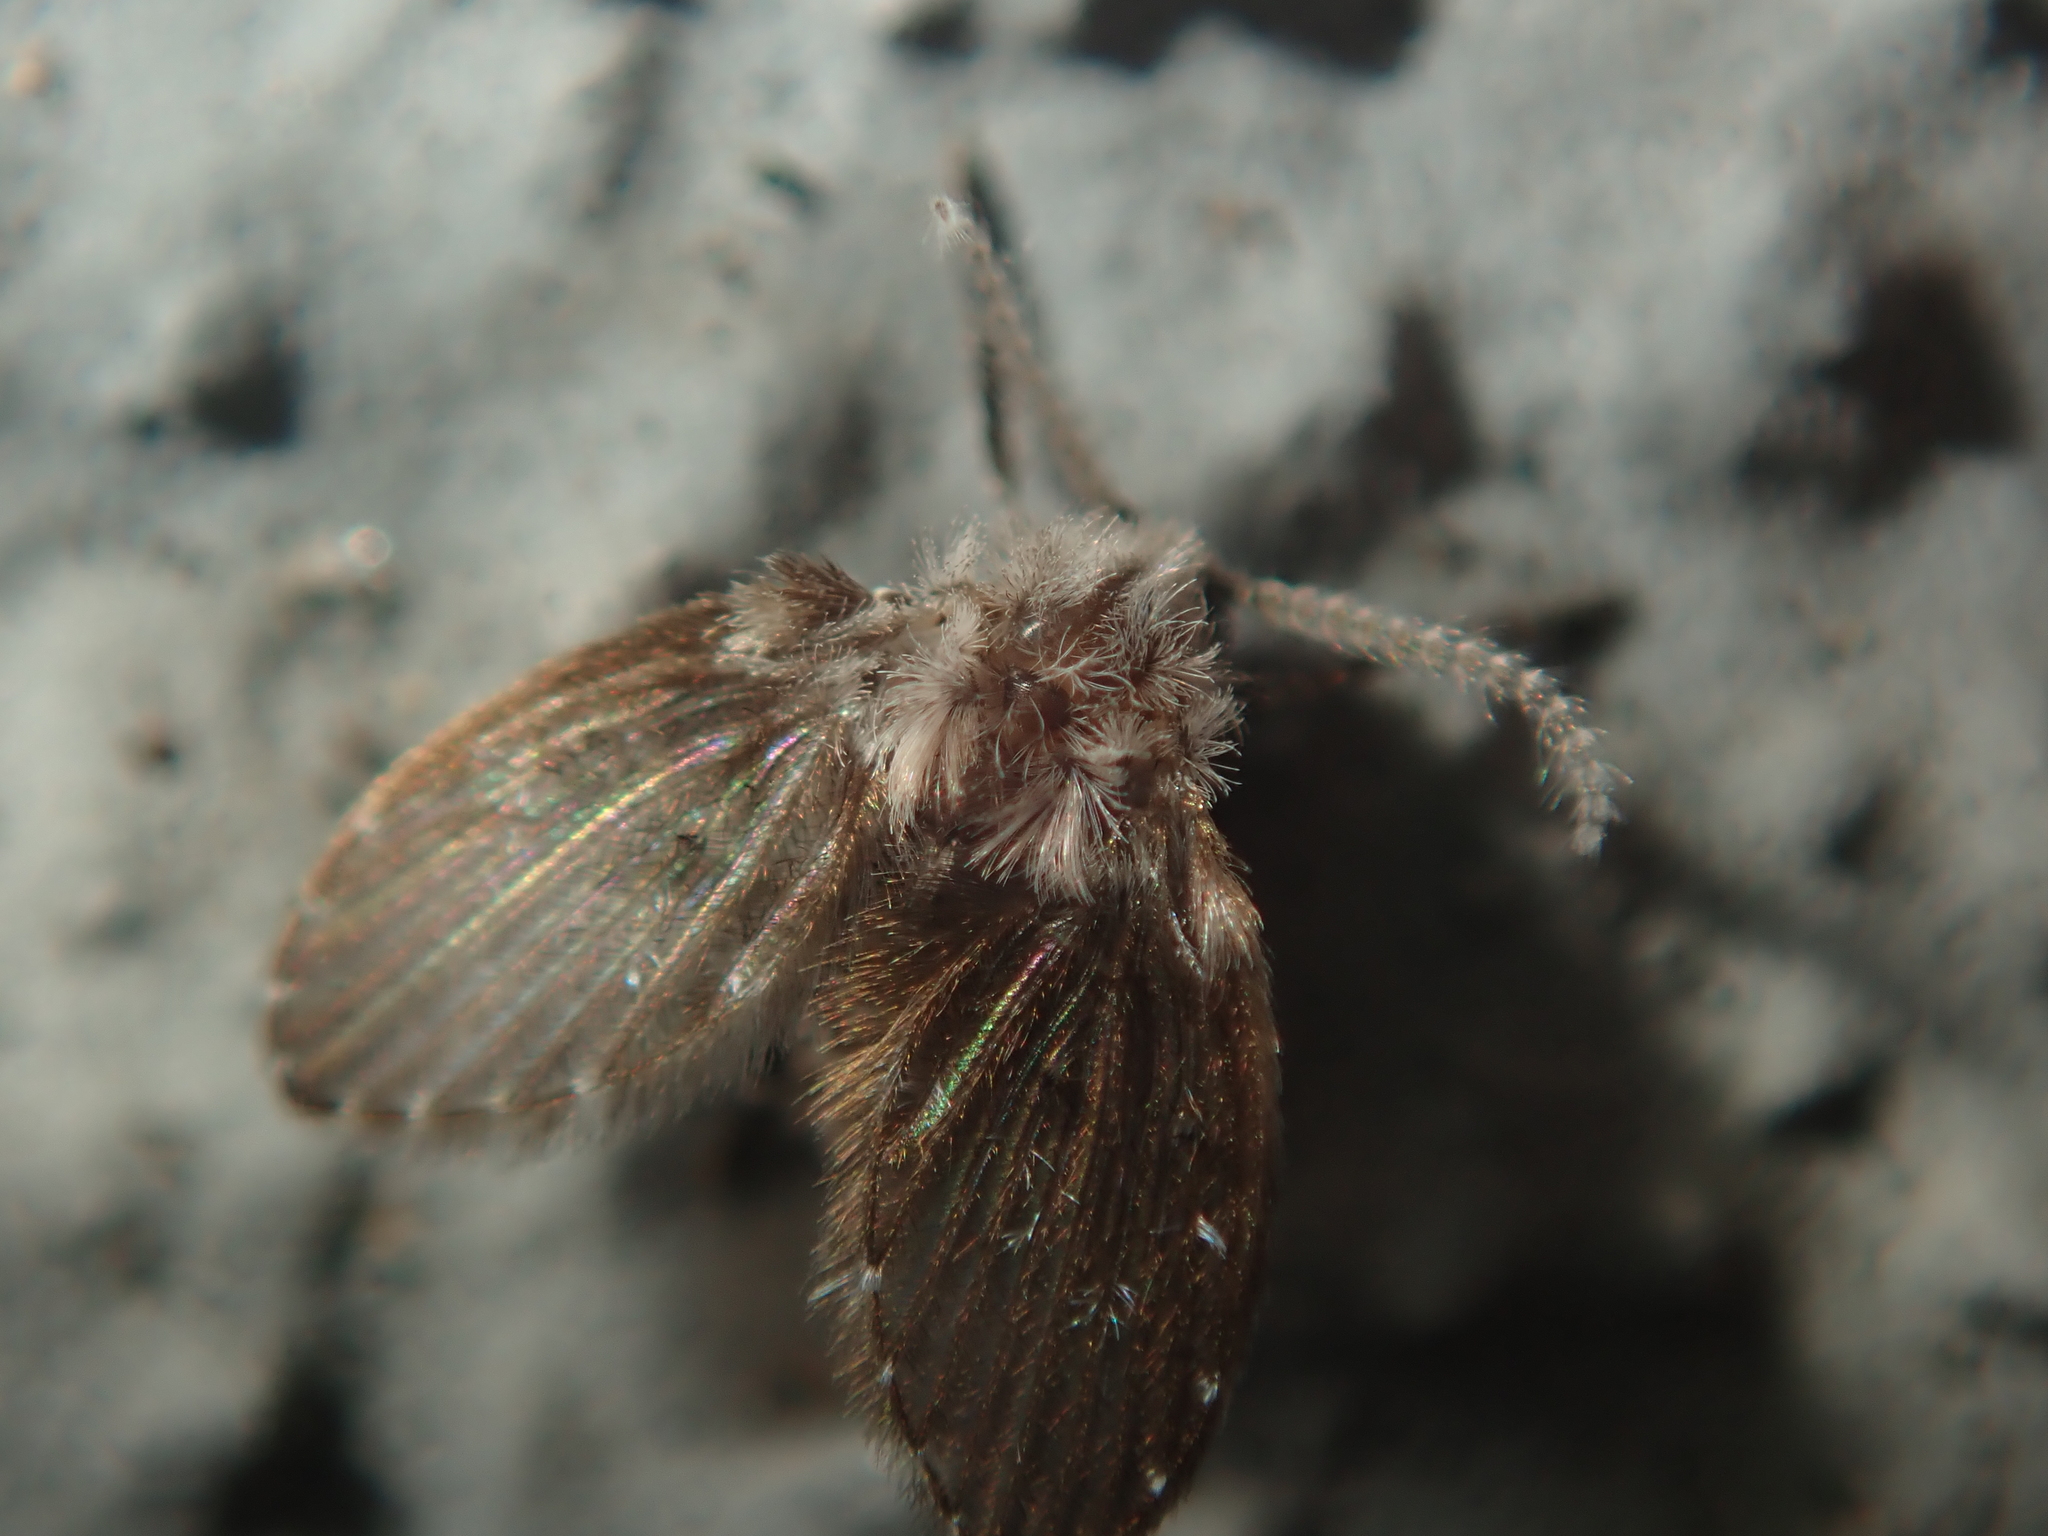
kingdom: Animalia
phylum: Arthropoda
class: Insecta
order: Diptera
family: Psychodidae
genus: Clogmia
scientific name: Clogmia albipunctatus
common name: White-spotted moth fly
